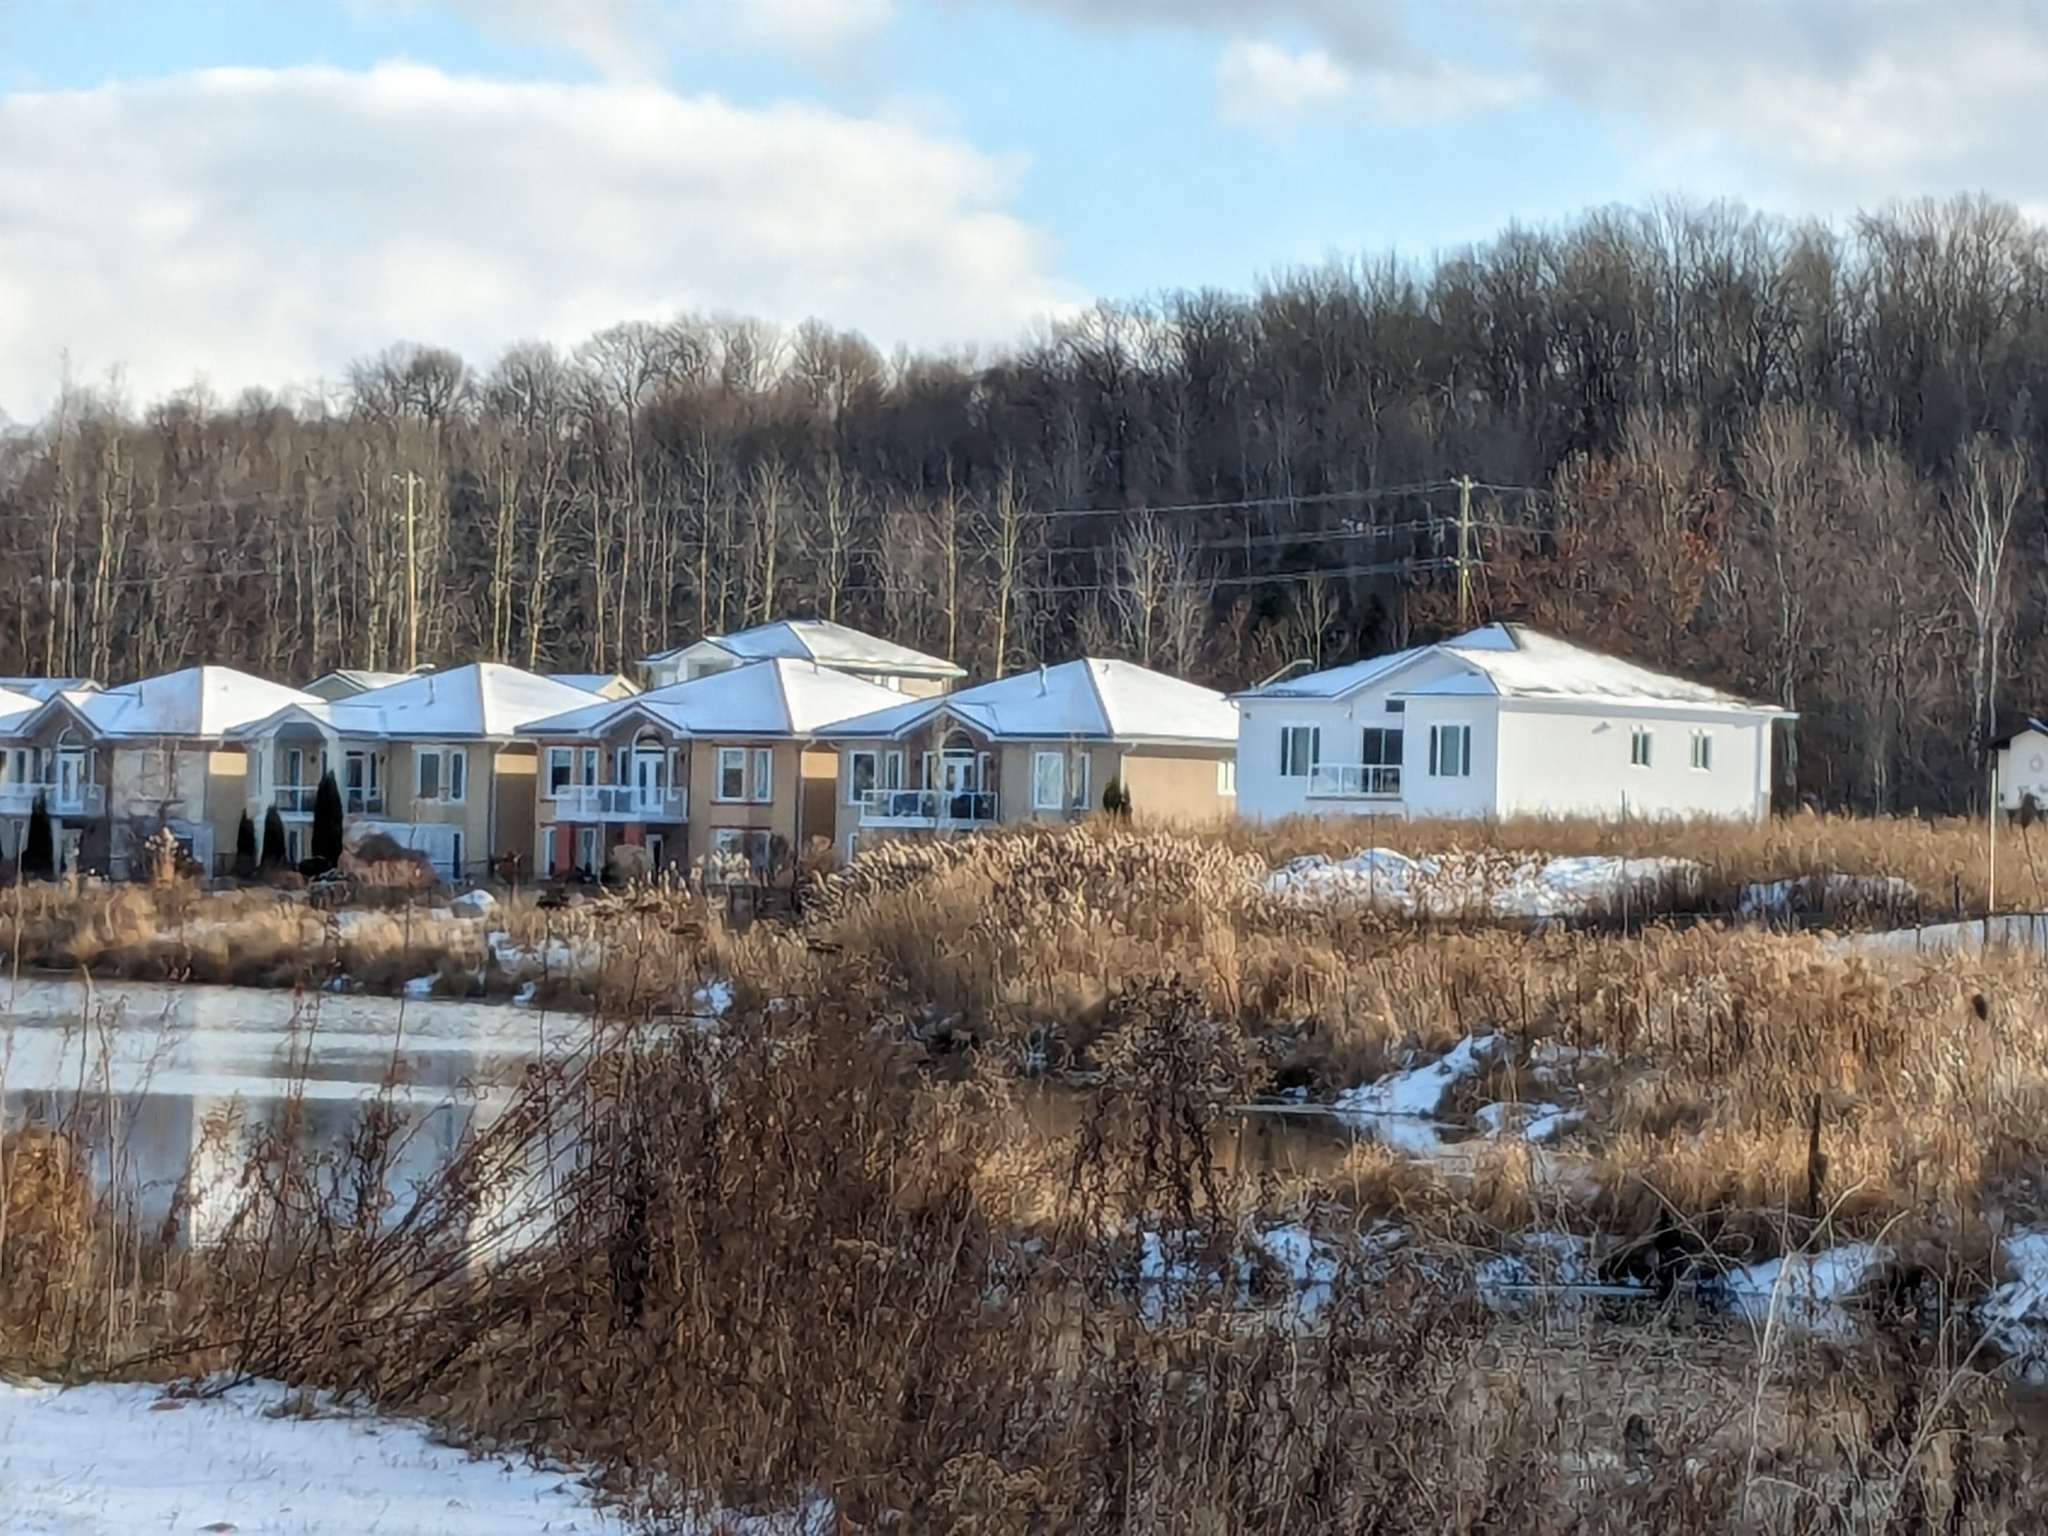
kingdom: Plantae
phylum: Tracheophyta
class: Liliopsida
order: Poales
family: Poaceae
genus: Phragmites
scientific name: Phragmites australis
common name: Common reed
